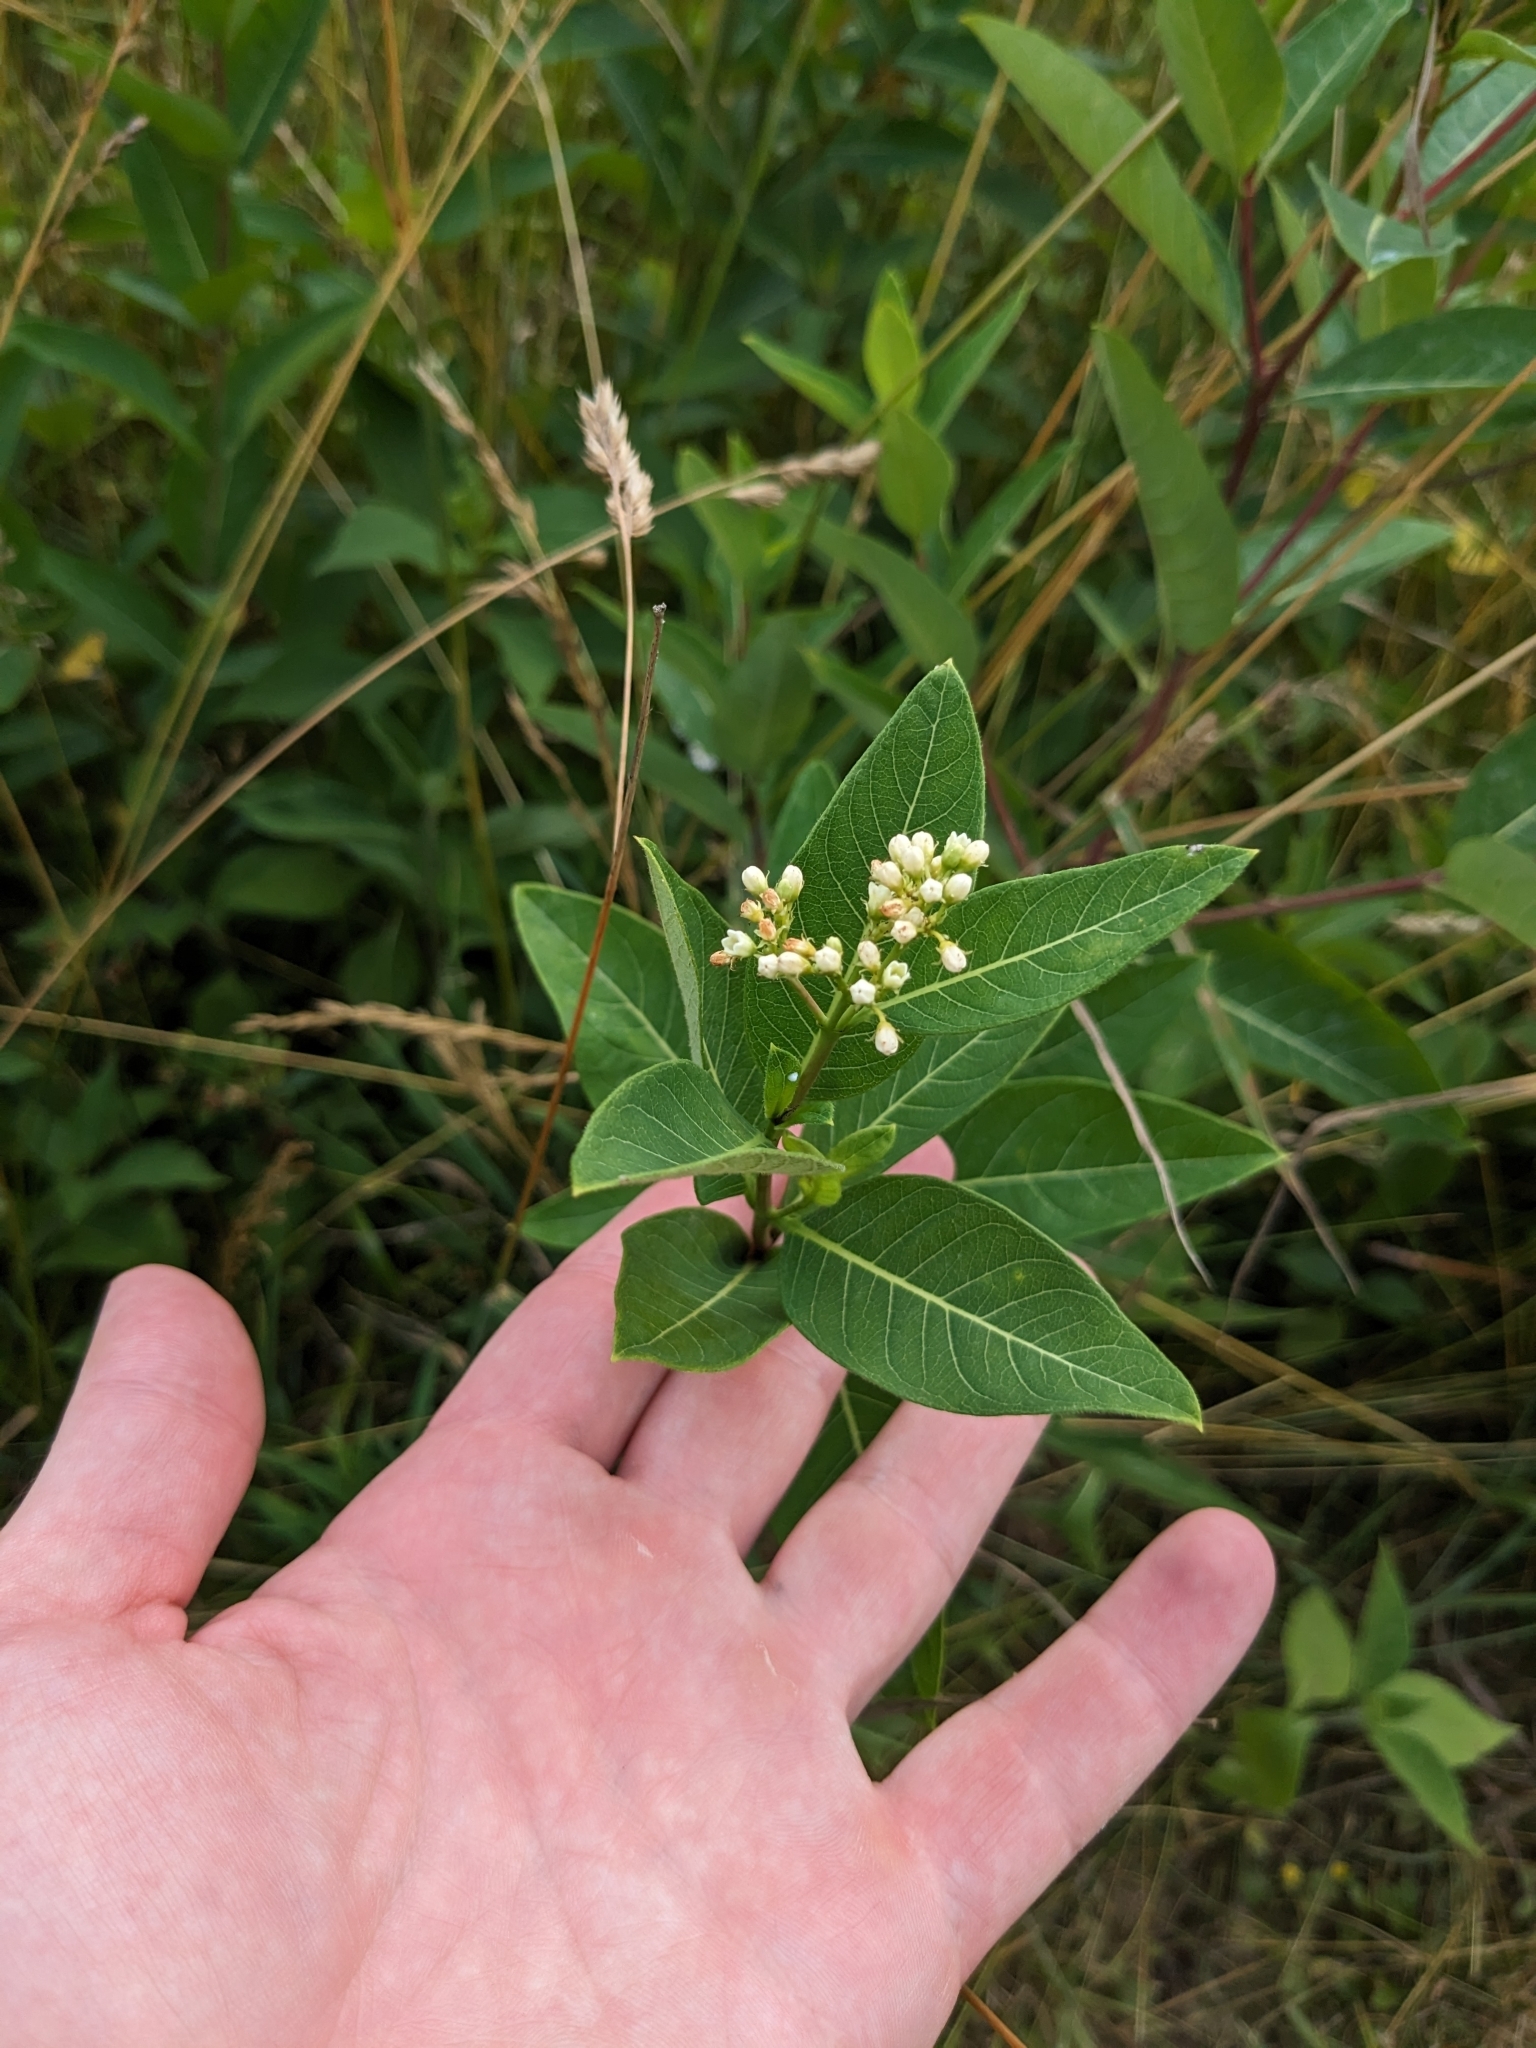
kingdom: Plantae
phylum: Tracheophyta
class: Magnoliopsida
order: Gentianales
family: Apocynaceae
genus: Apocynum
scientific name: Apocynum cannabinum
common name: Hemp dogbane
